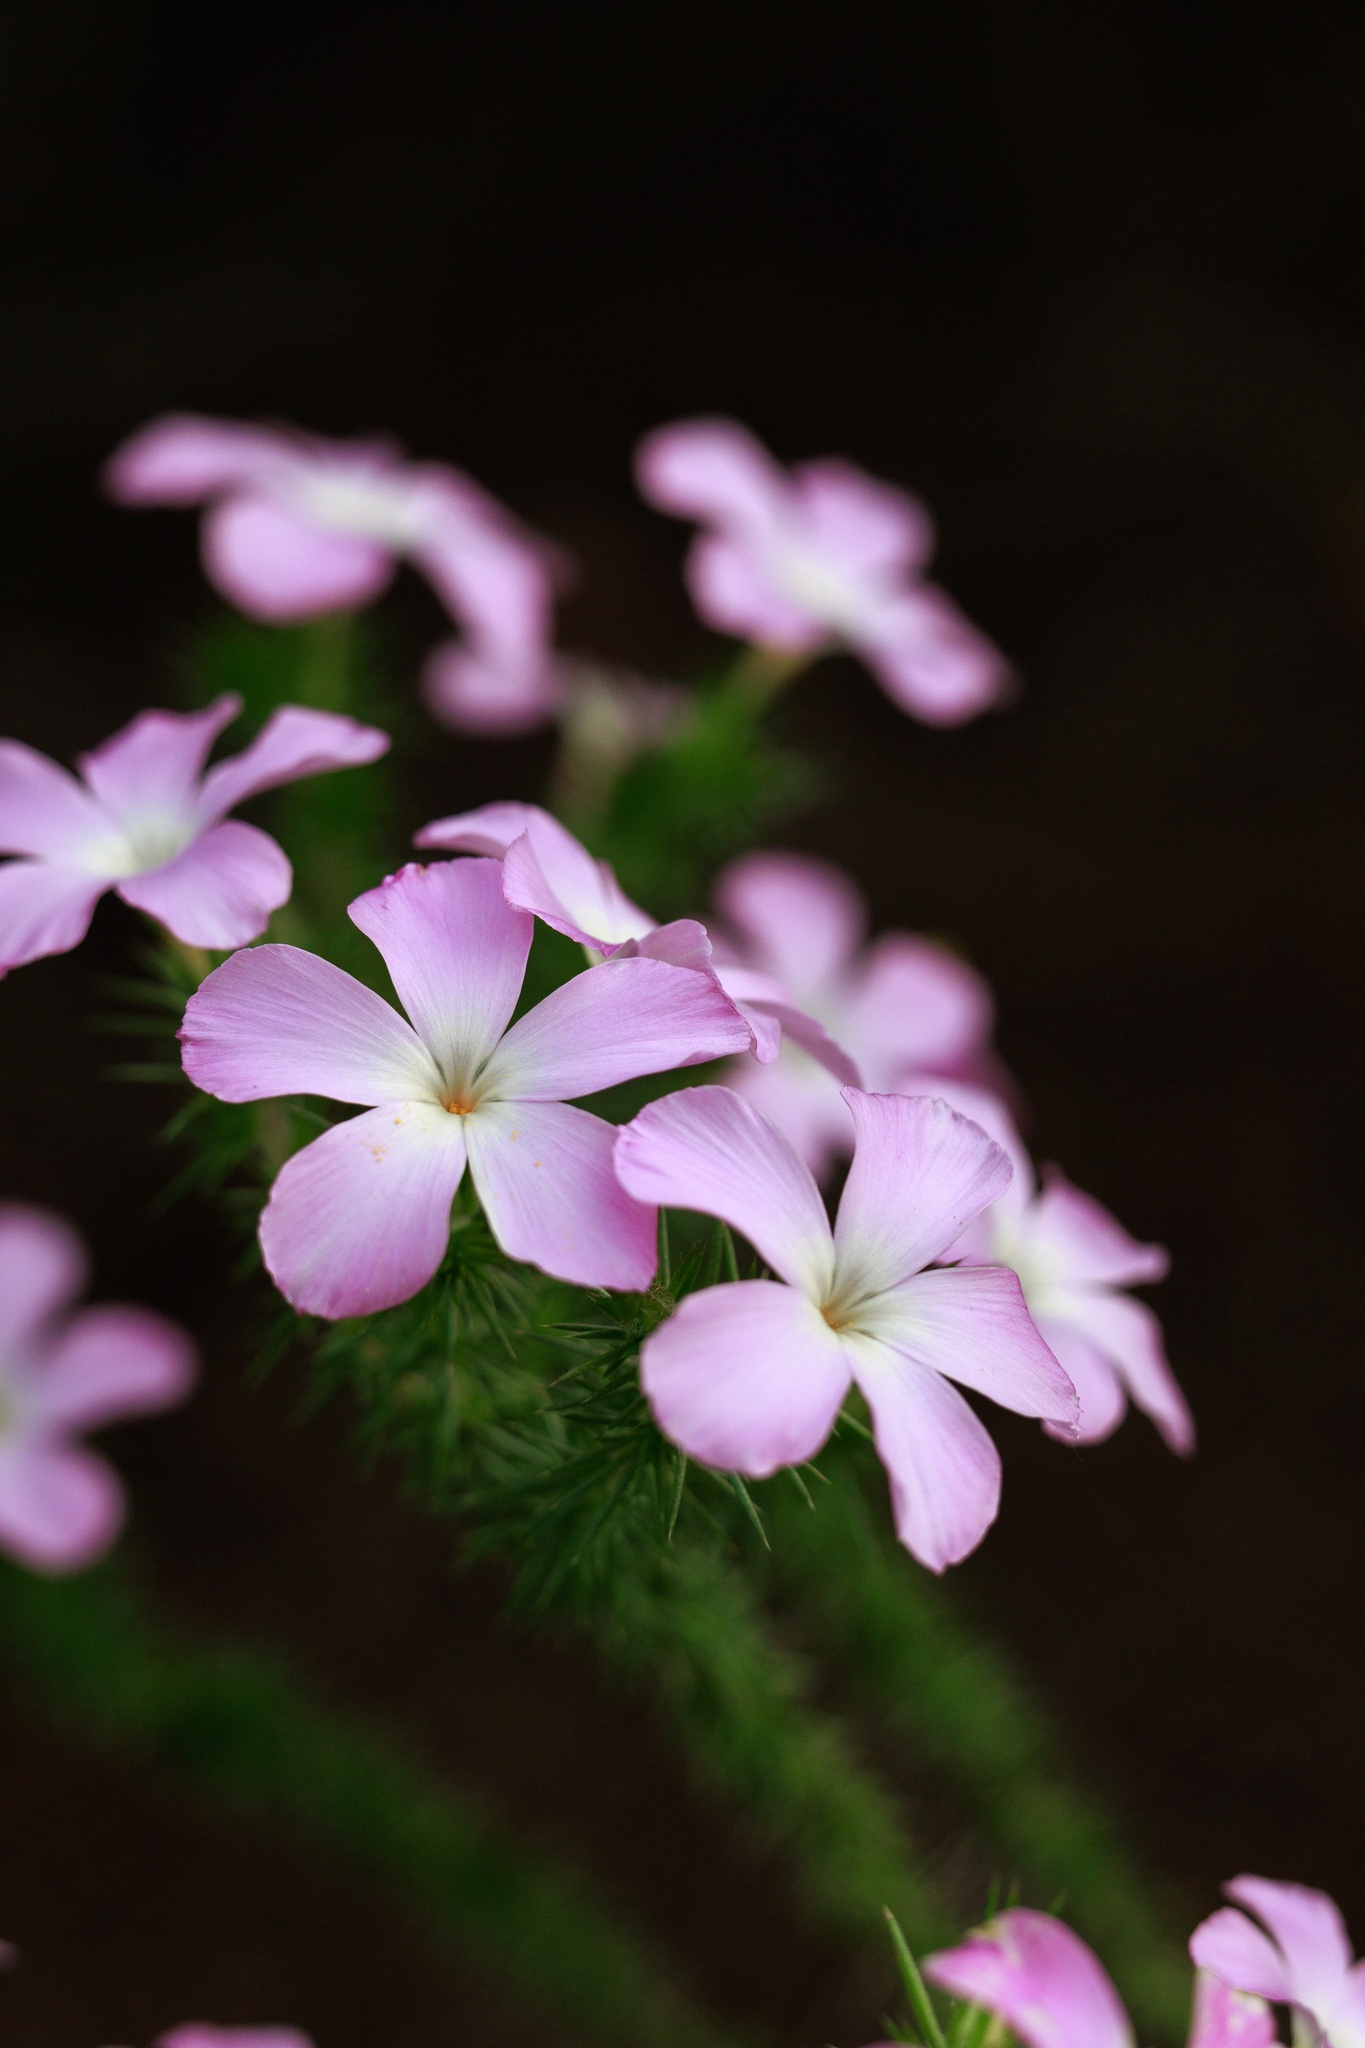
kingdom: Plantae
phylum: Tracheophyta
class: Magnoliopsida
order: Ericales
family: Polemoniaceae
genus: Linanthus
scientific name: Linanthus californicus
